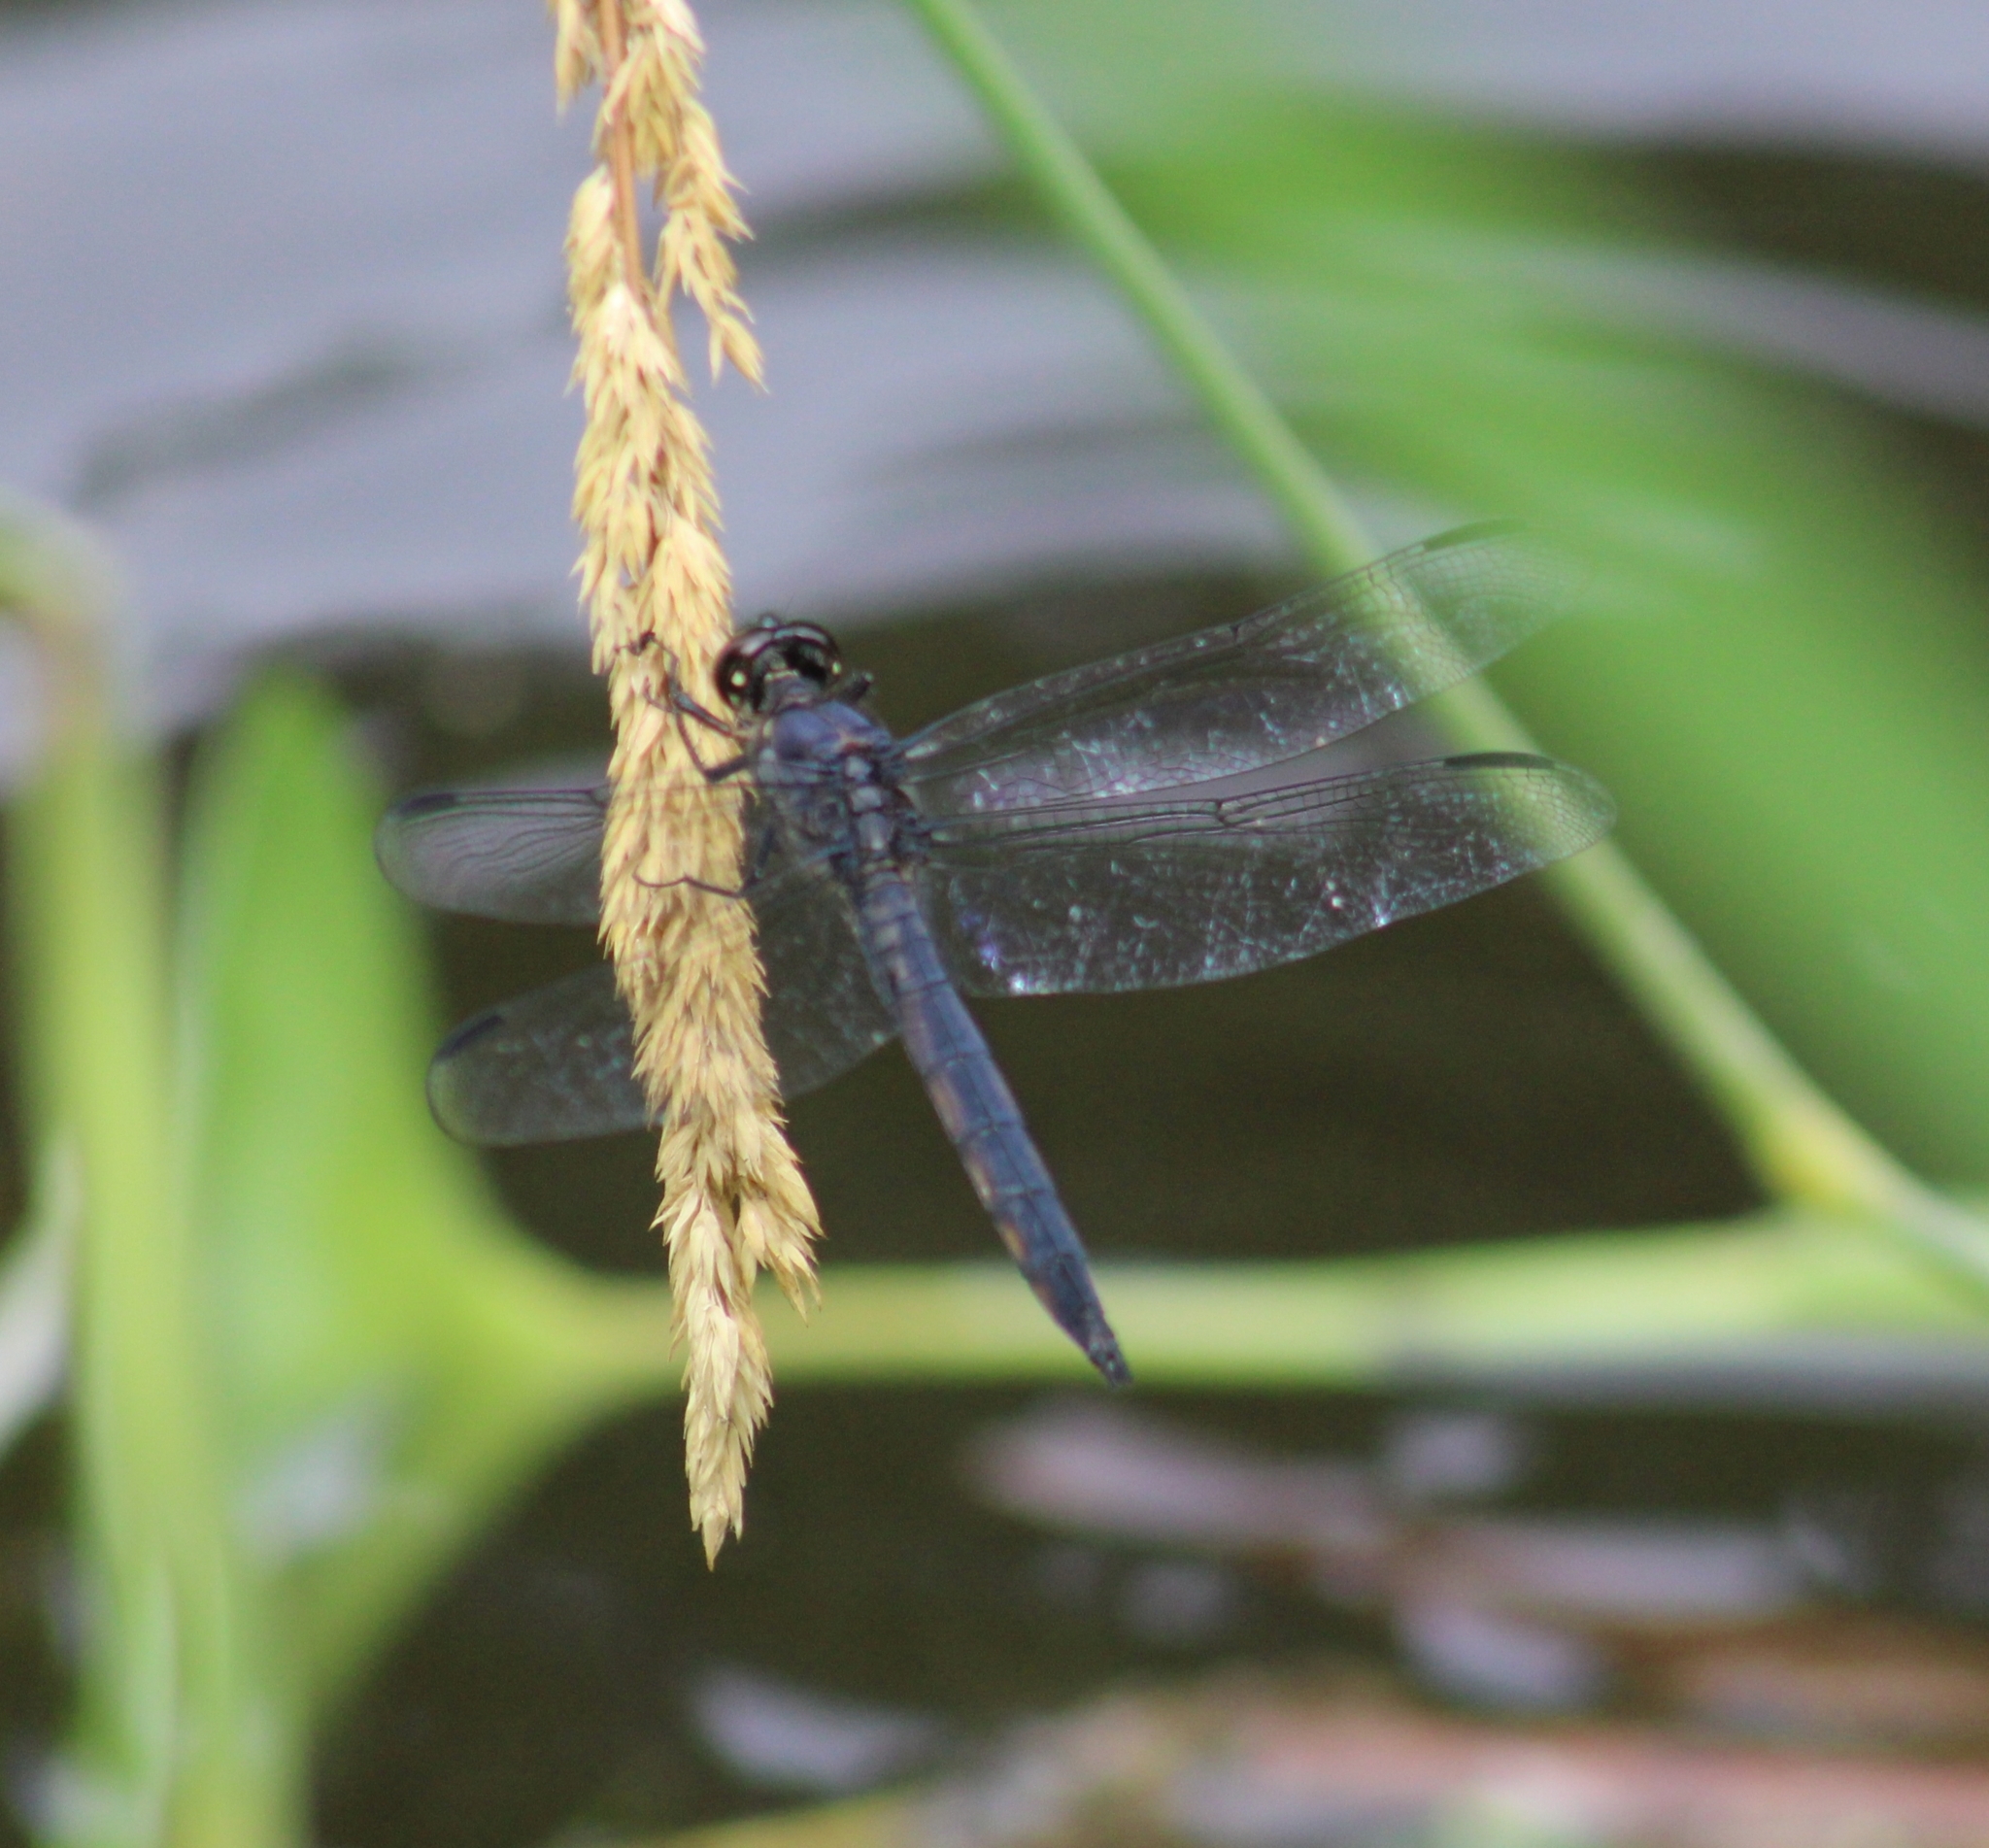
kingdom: Animalia
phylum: Arthropoda
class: Insecta
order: Odonata
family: Libellulidae
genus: Libellula
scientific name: Libellula incesta
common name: Slaty skimmer
